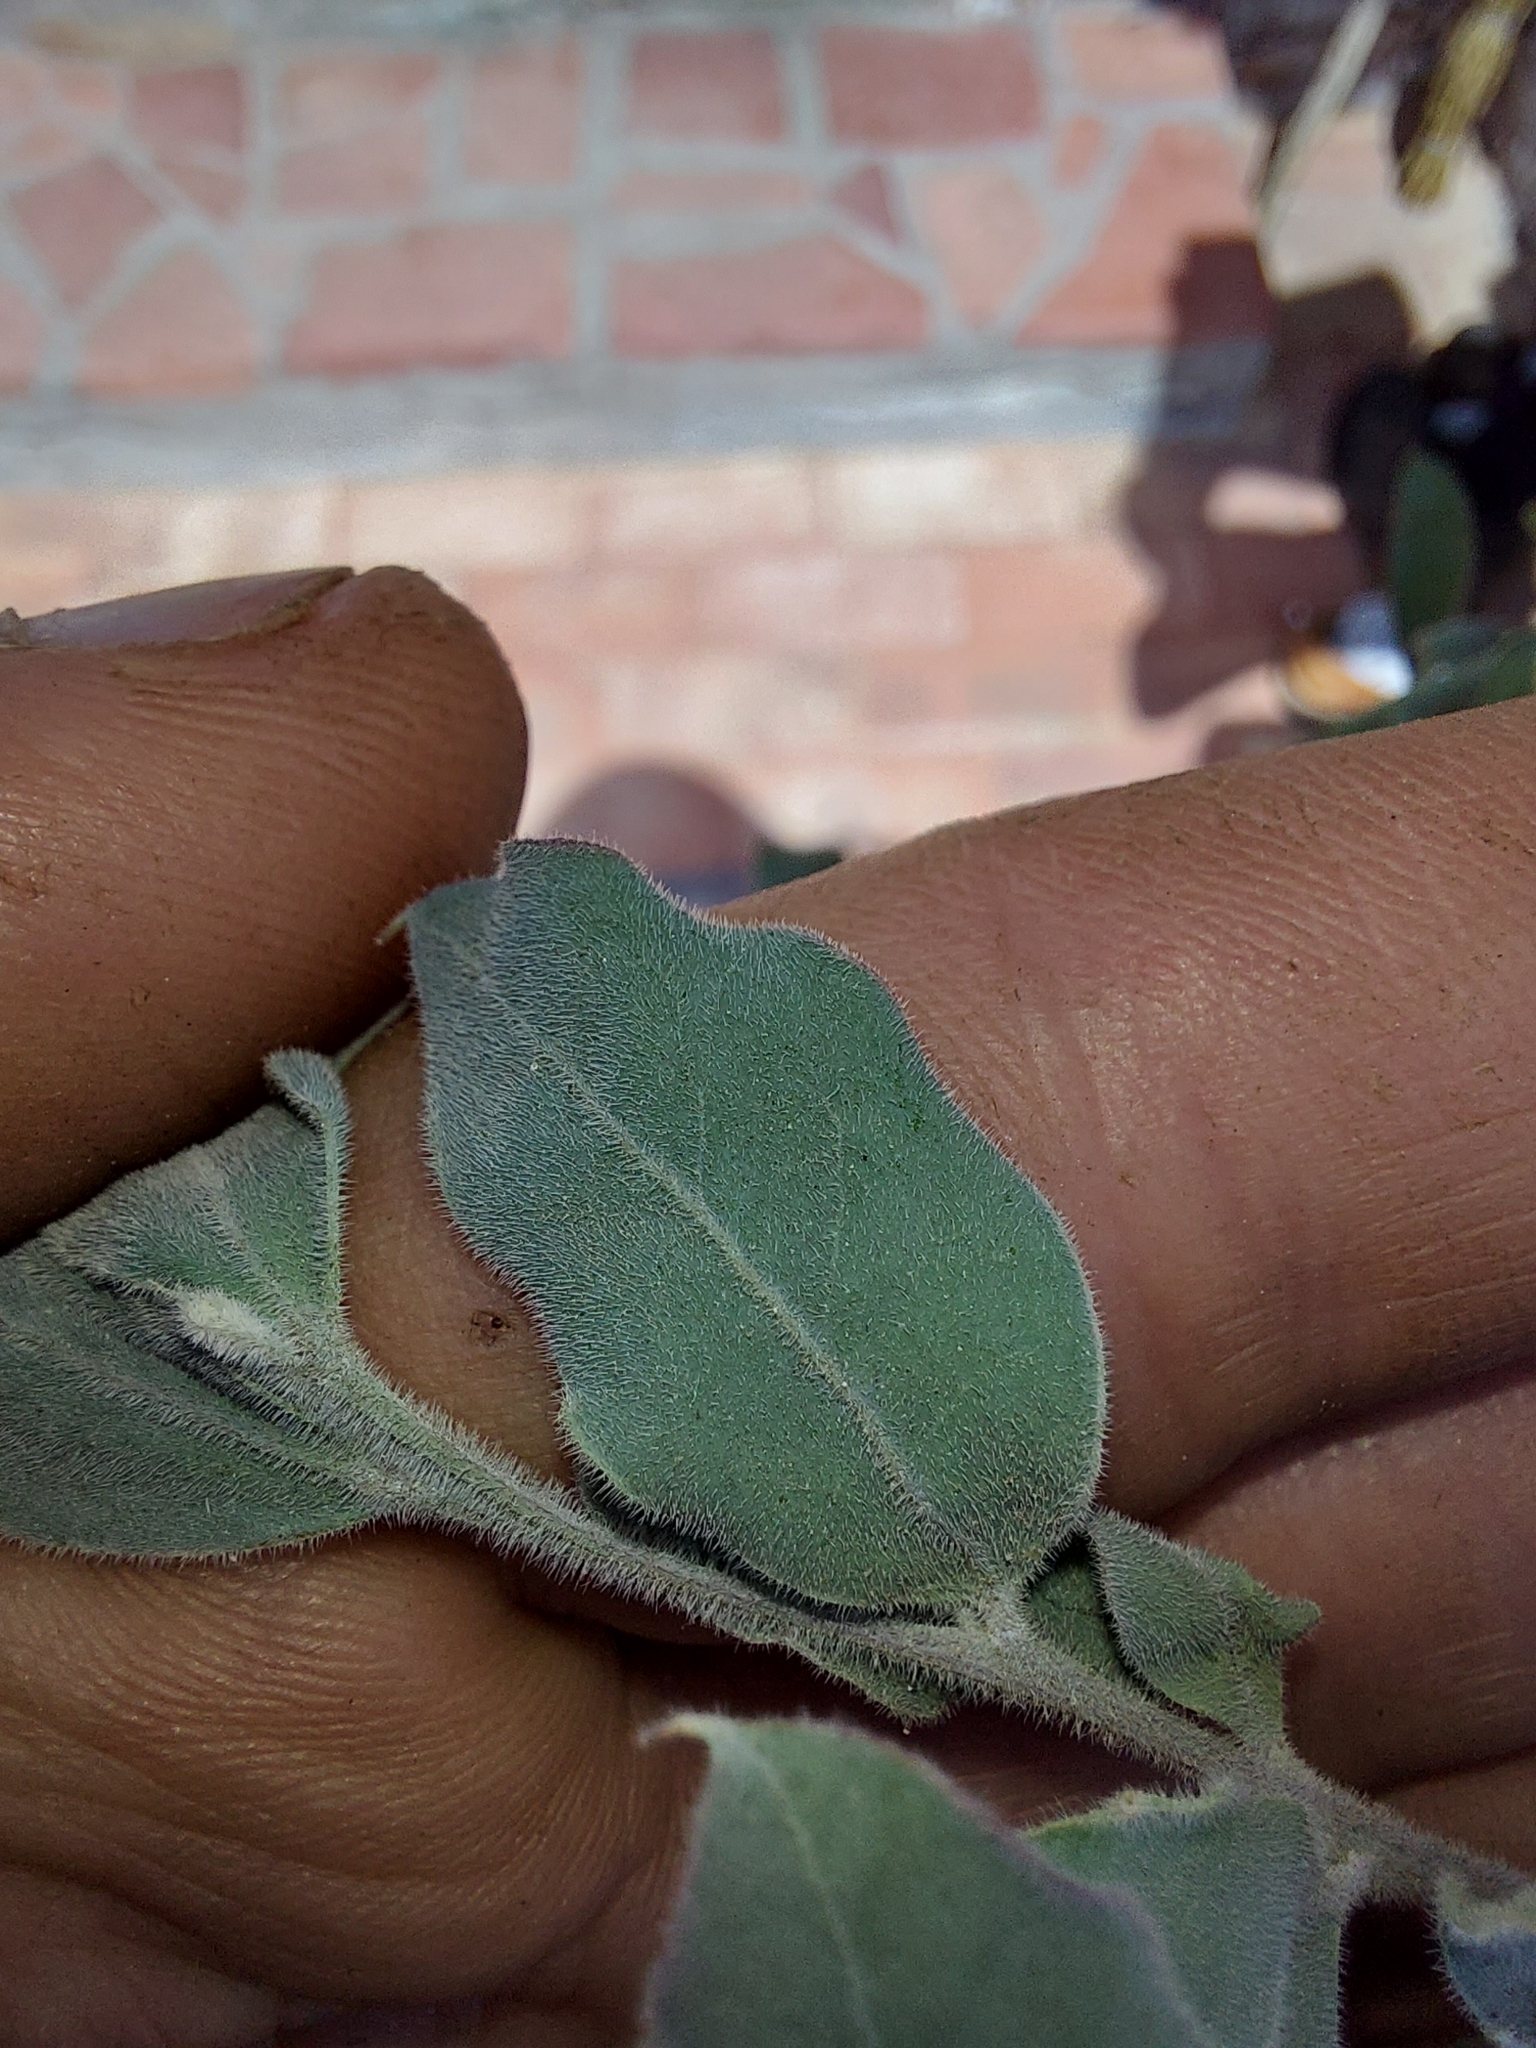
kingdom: Plantae
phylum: Tracheophyta
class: Magnoliopsida
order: Fabales
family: Fabaceae
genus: Acacia
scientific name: Acacia podalyriifolia
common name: Pearl wattle
